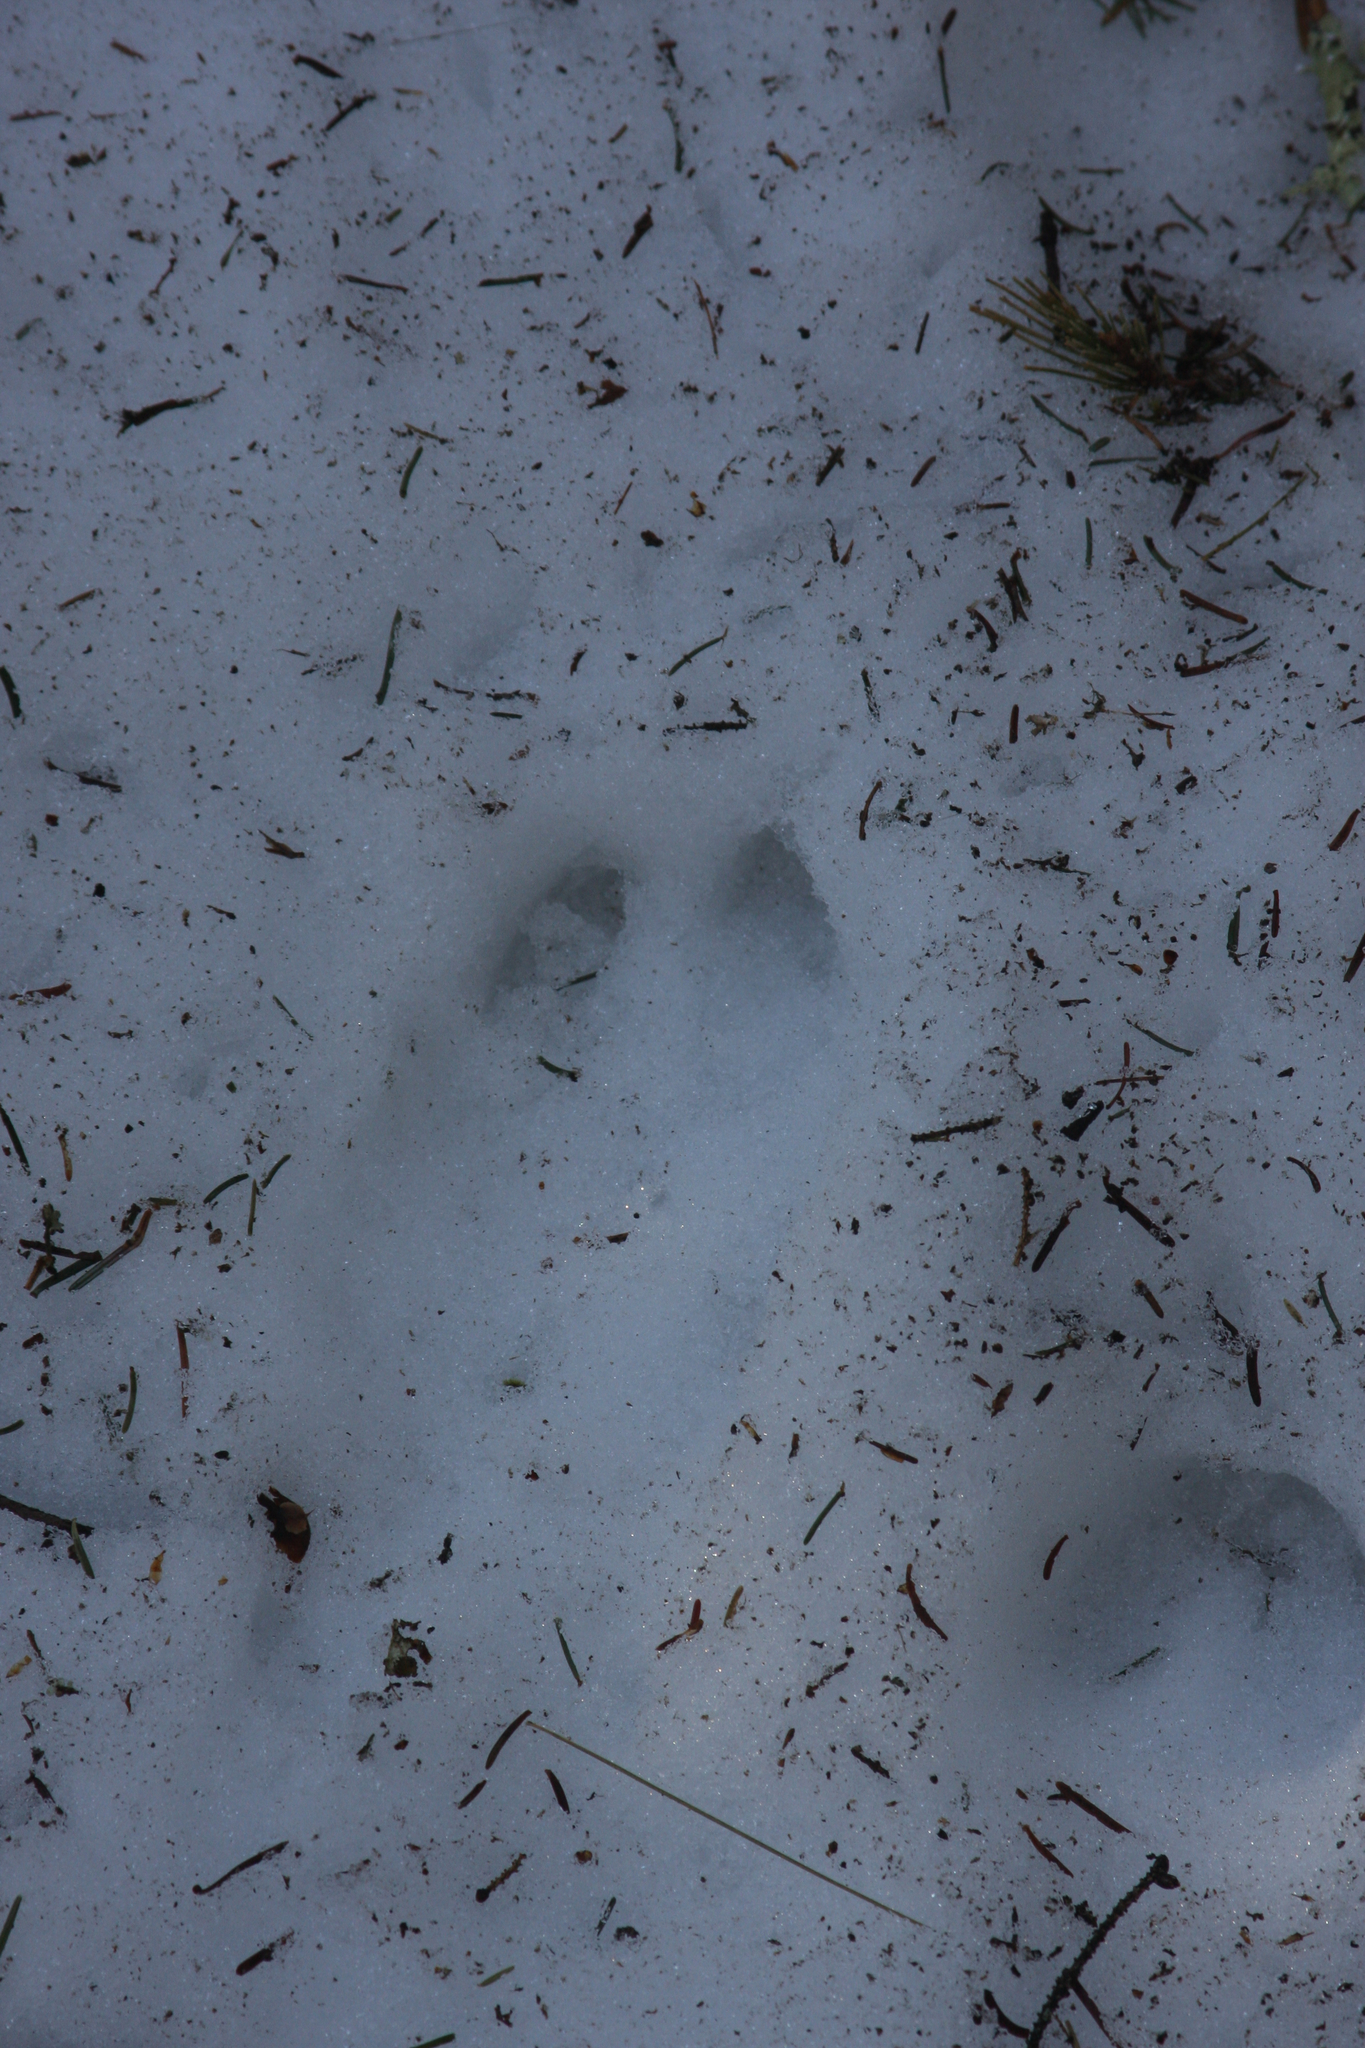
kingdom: Animalia
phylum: Chordata
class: Mammalia
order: Artiodactyla
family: Cervidae
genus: Odocoileus
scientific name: Odocoileus virginianus
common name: White-tailed deer
